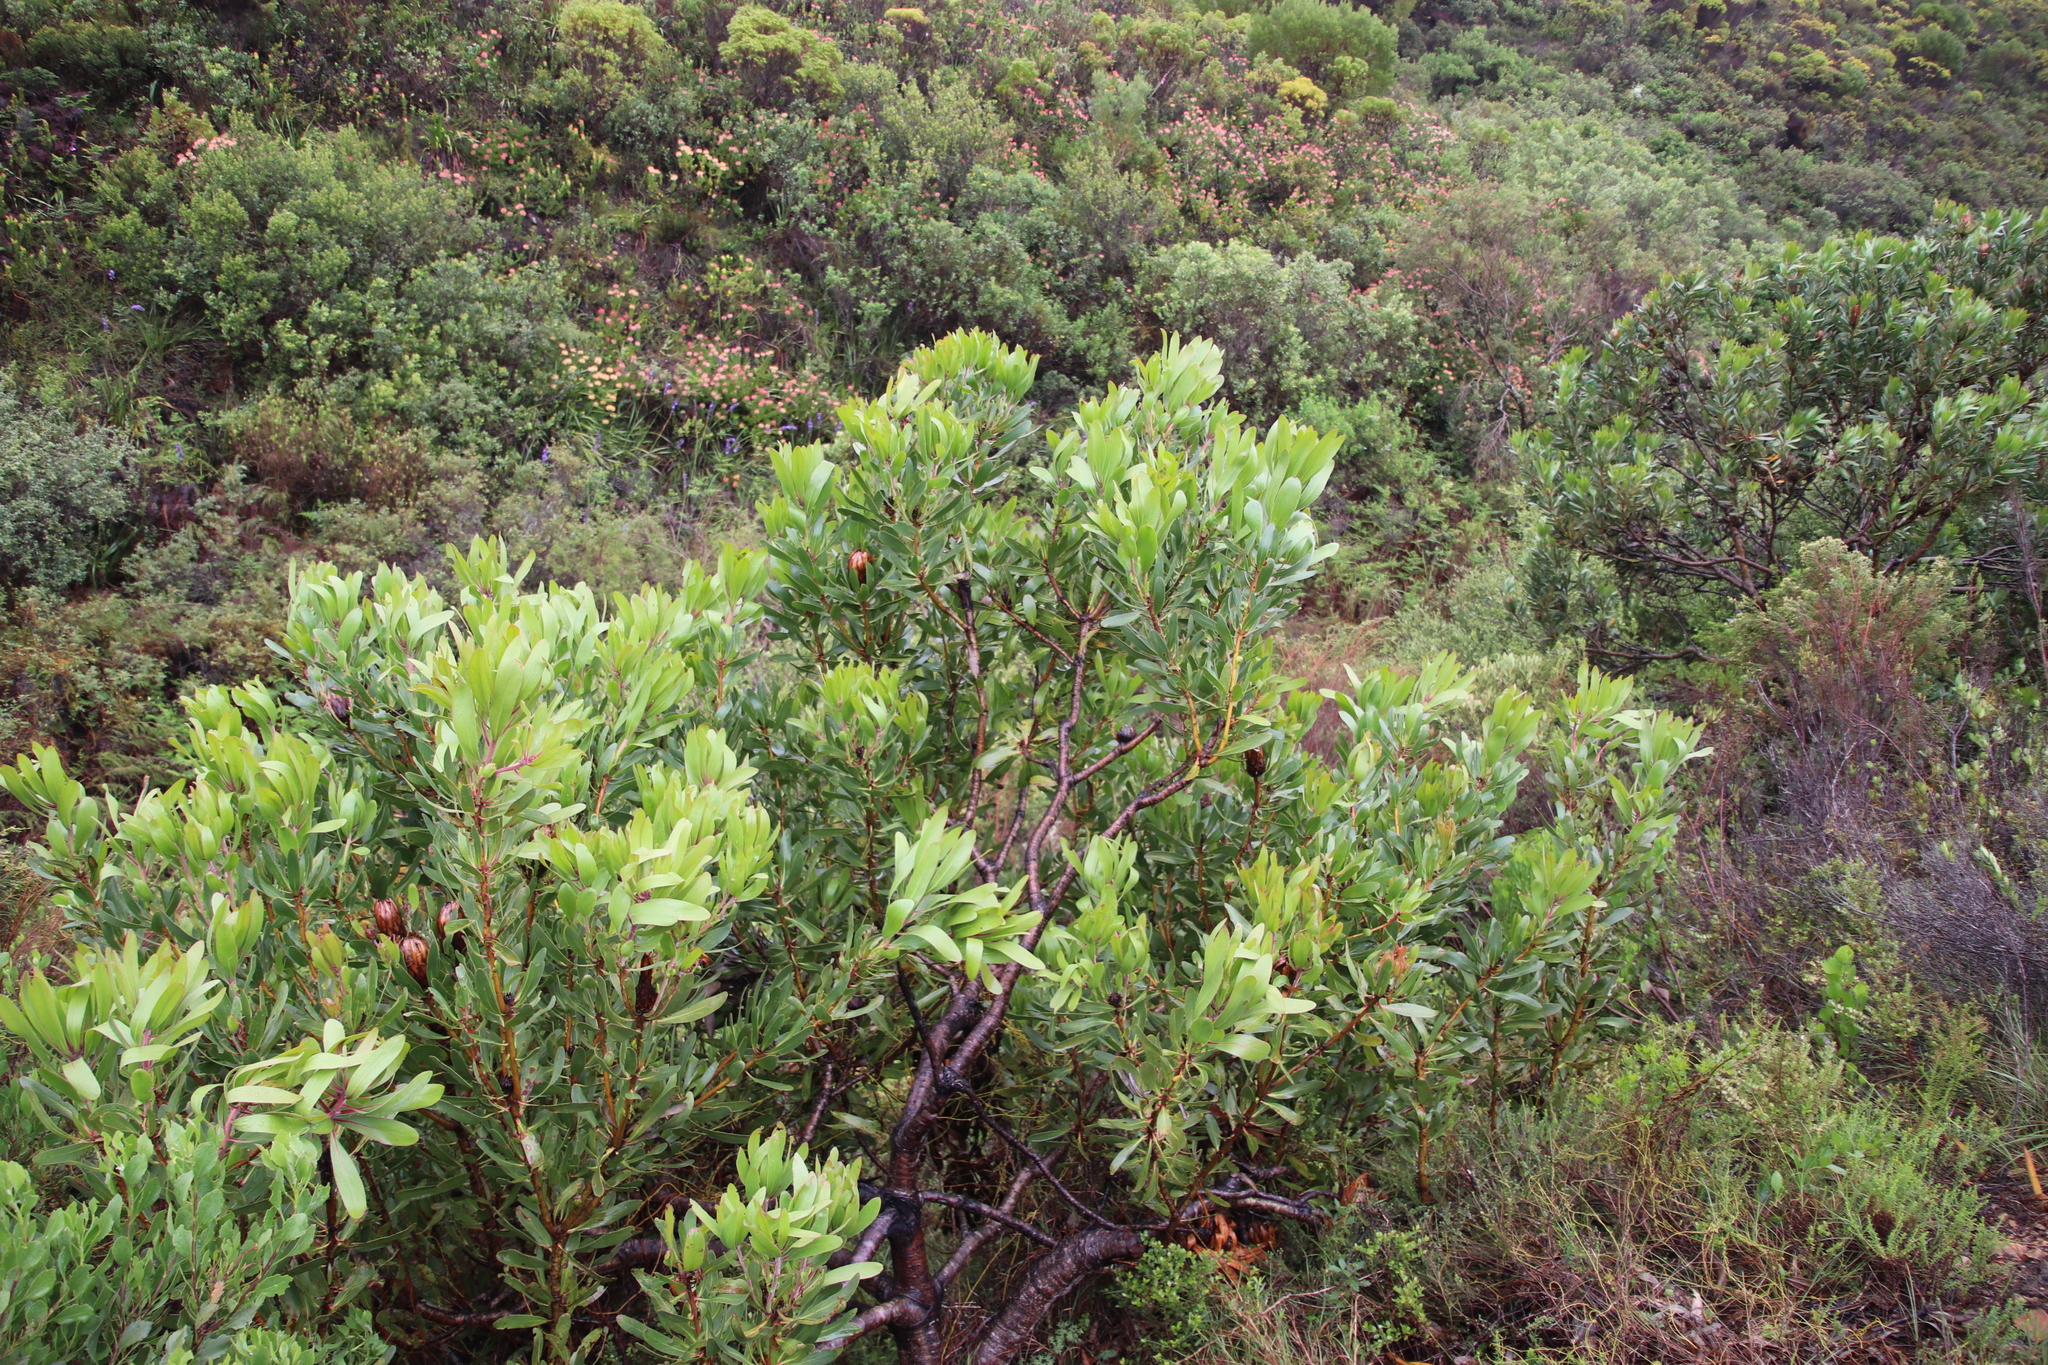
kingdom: Plantae
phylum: Tracheophyta
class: Magnoliopsida
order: Proteales
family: Proteaceae
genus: Protea
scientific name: Protea obtusifolia
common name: Bredasdorp sugarbush
